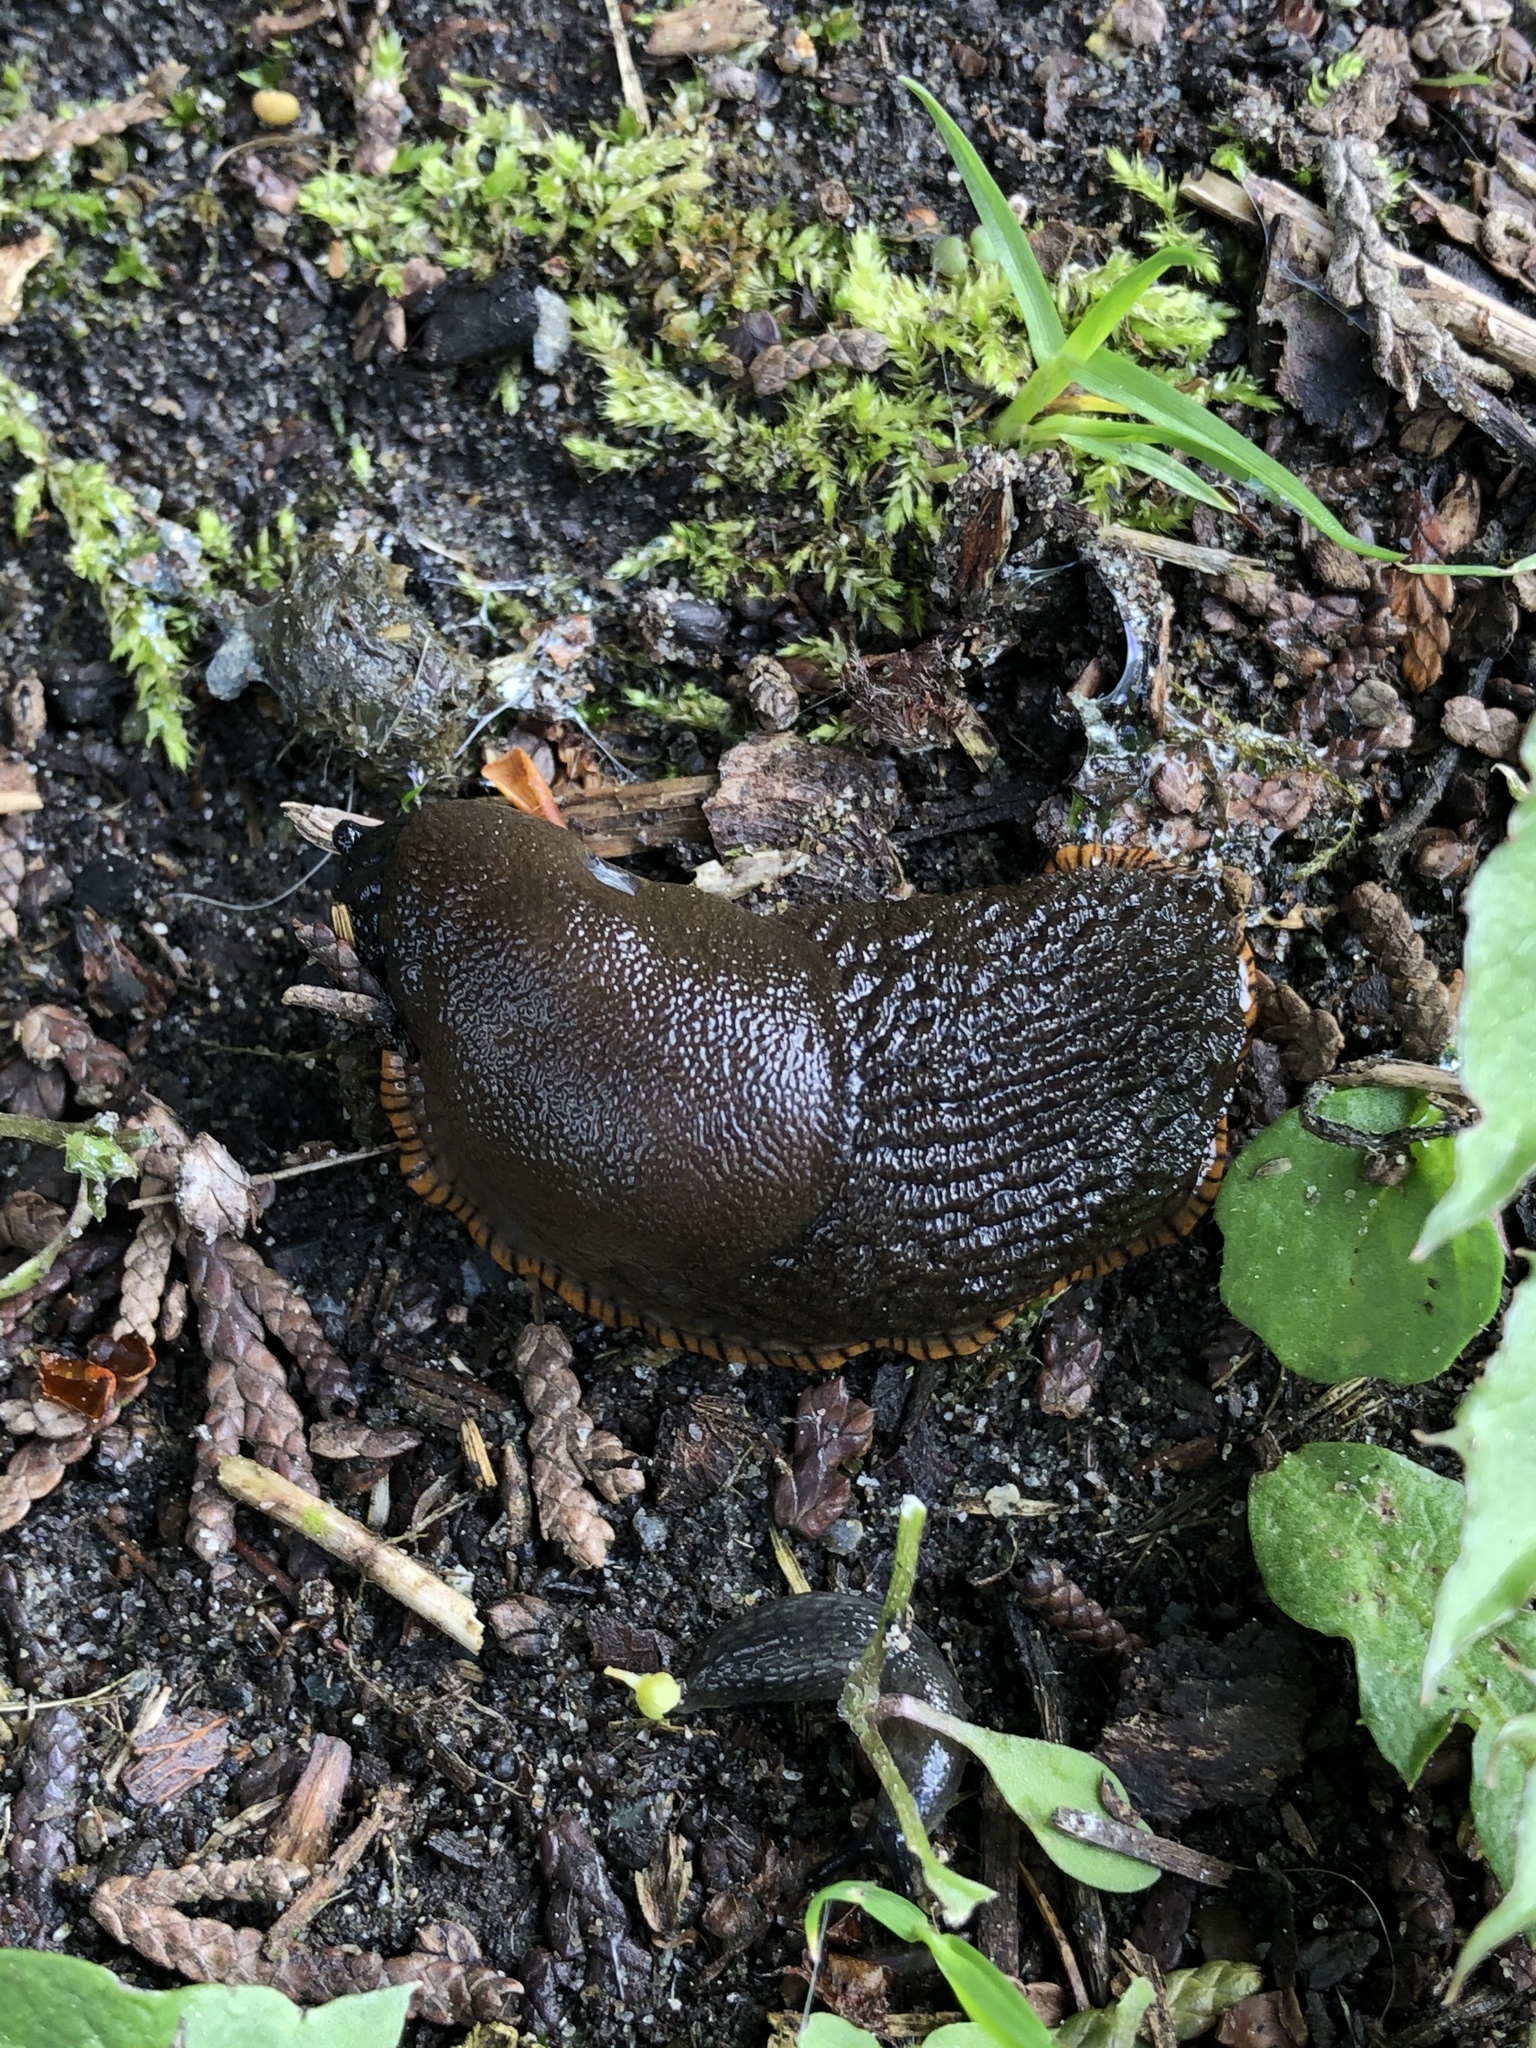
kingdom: Animalia
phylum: Mollusca
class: Gastropoda
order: Stylommatophora
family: Arionidae
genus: Arion
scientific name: Arion rufus
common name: Chocolate arion
